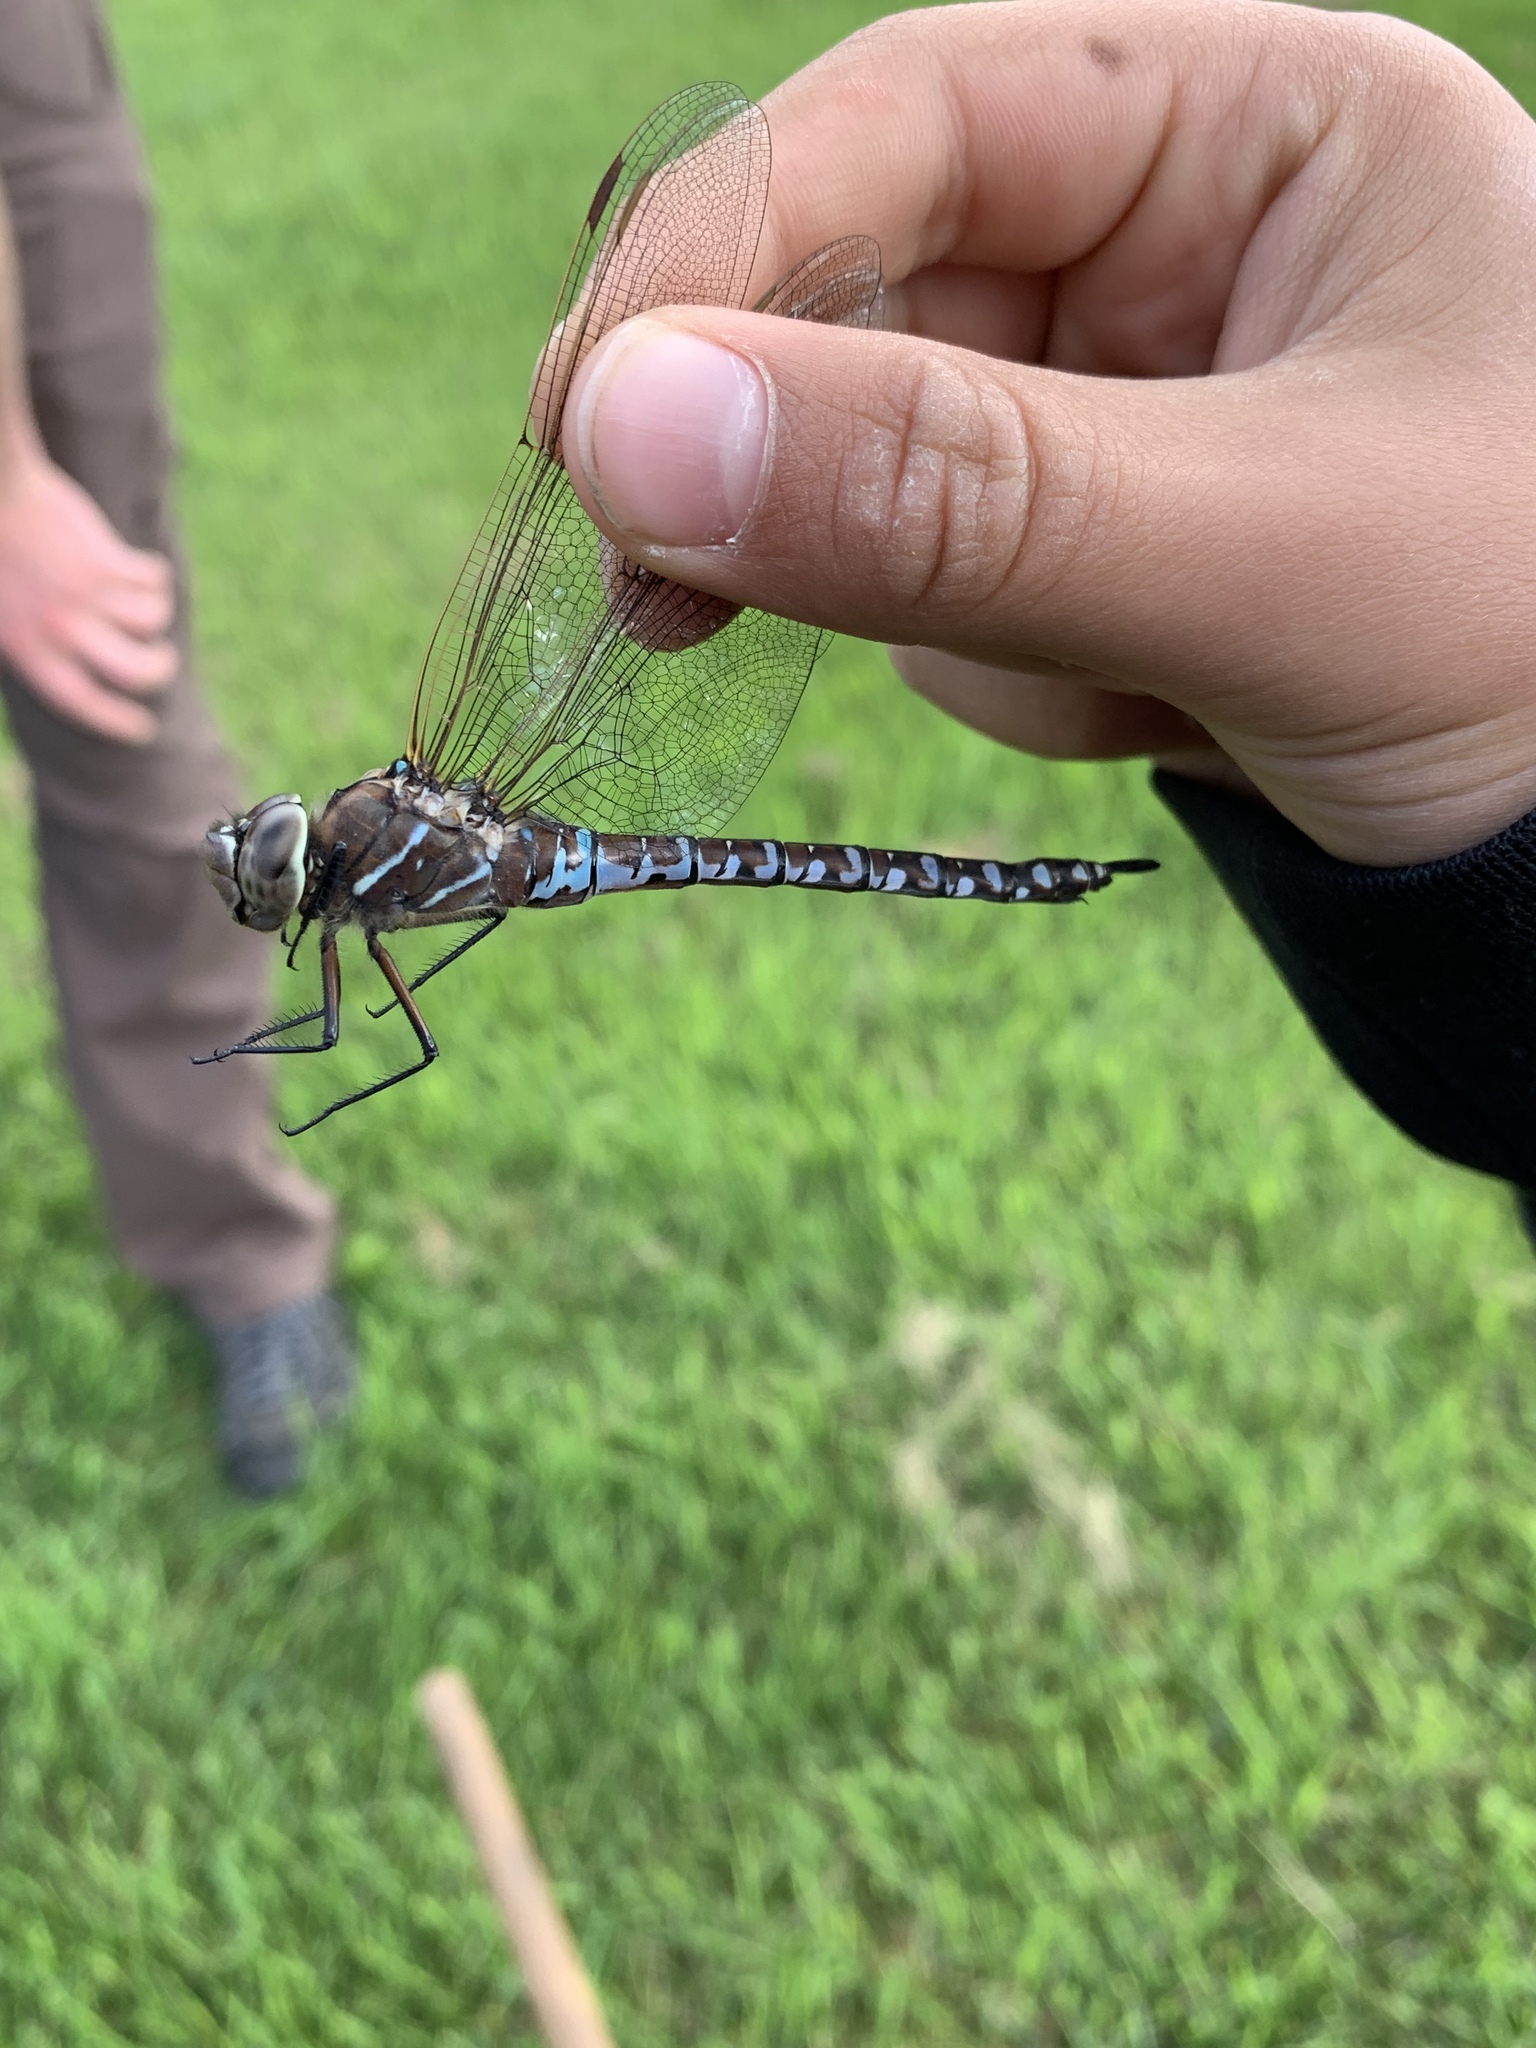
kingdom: Animalia
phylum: Arthropoda
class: Insecta
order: Odonata
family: Aeshnidae
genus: Aeshna
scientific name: Aeshna interrupta
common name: Variable darner
